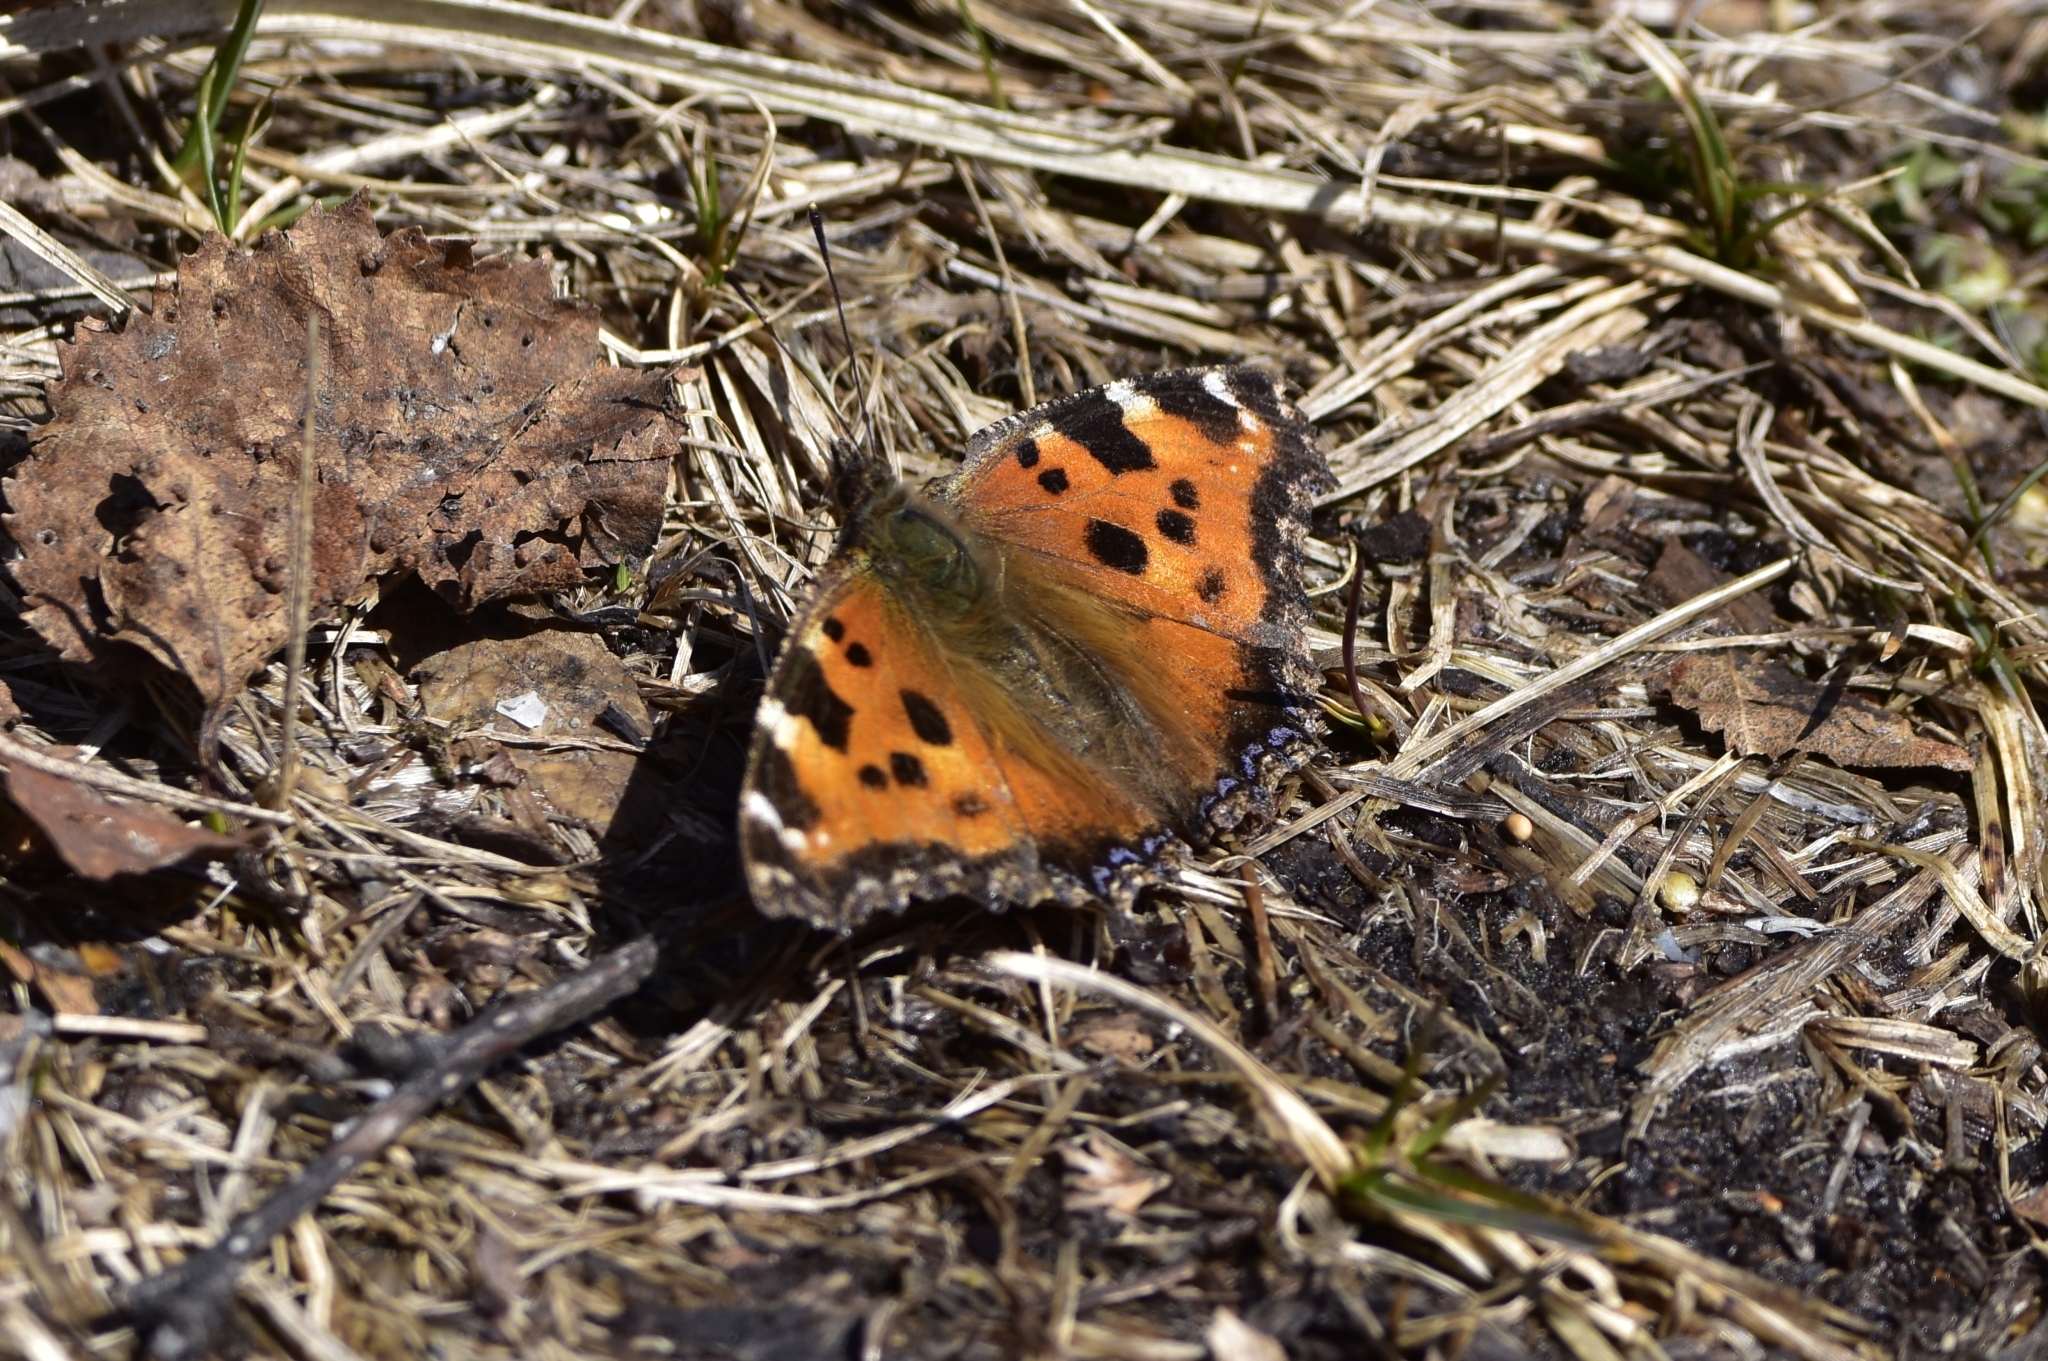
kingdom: Animalia
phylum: Arthropoda
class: Insecta
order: Lepidoptera
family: Nymphalidae
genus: Nymphalis
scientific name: Nymphalis xanthomelas
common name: Scarce tortoiseshell
